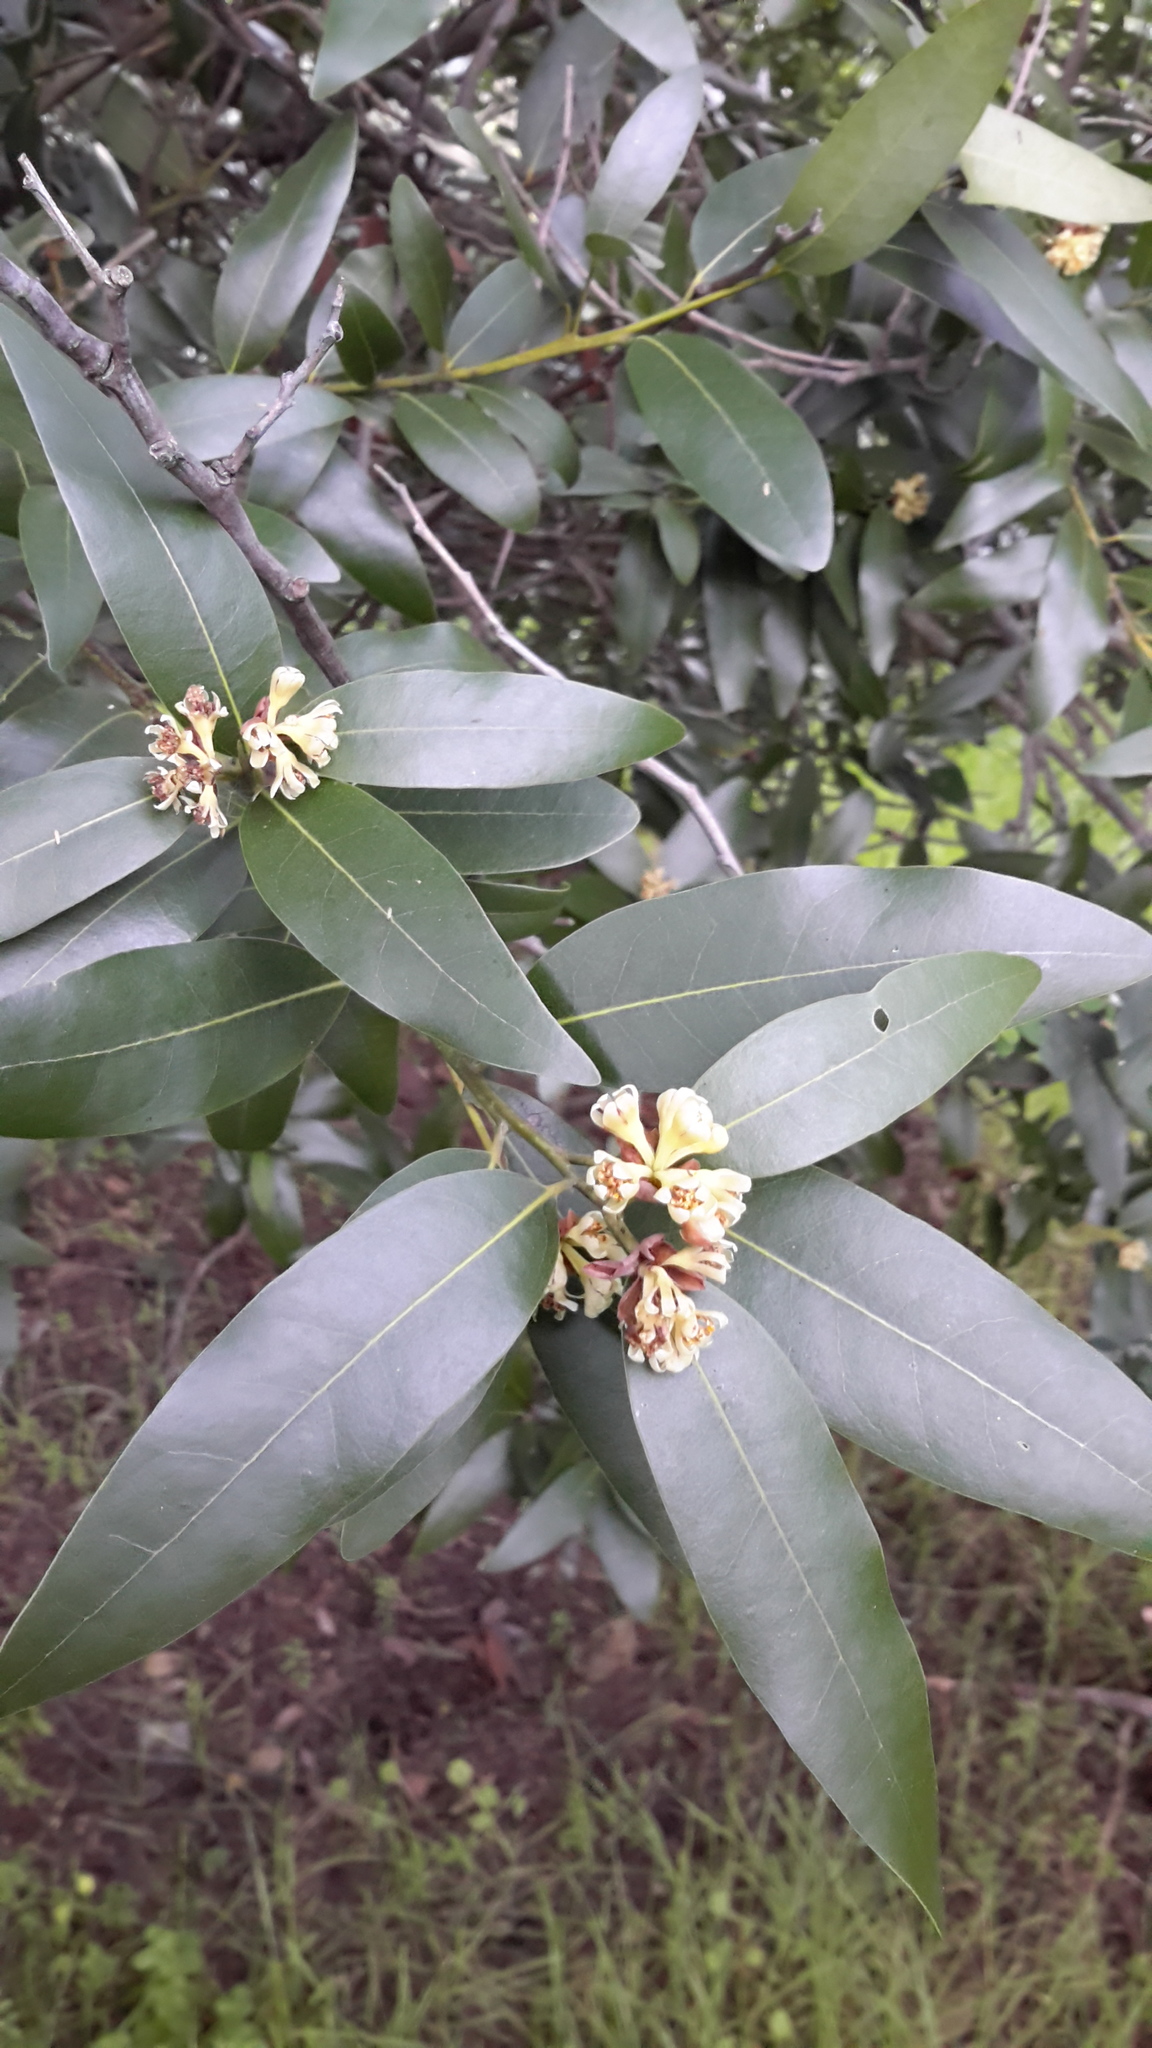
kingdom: Plantae
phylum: Tracheophyta
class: Magnoliopsida
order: Laurales
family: Lauraceae
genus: Umbellularia
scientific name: Umbellularia californica
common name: California bay
